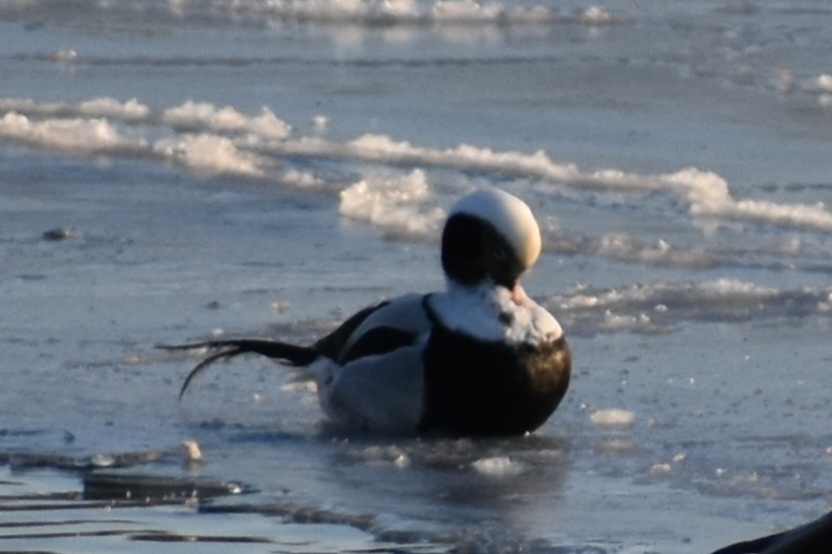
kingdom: Animalia
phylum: Chordata
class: Aves
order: Anseriformes
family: Anatidae
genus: Clangula
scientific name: Clangula hyemalis
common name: Long-tailed duck
